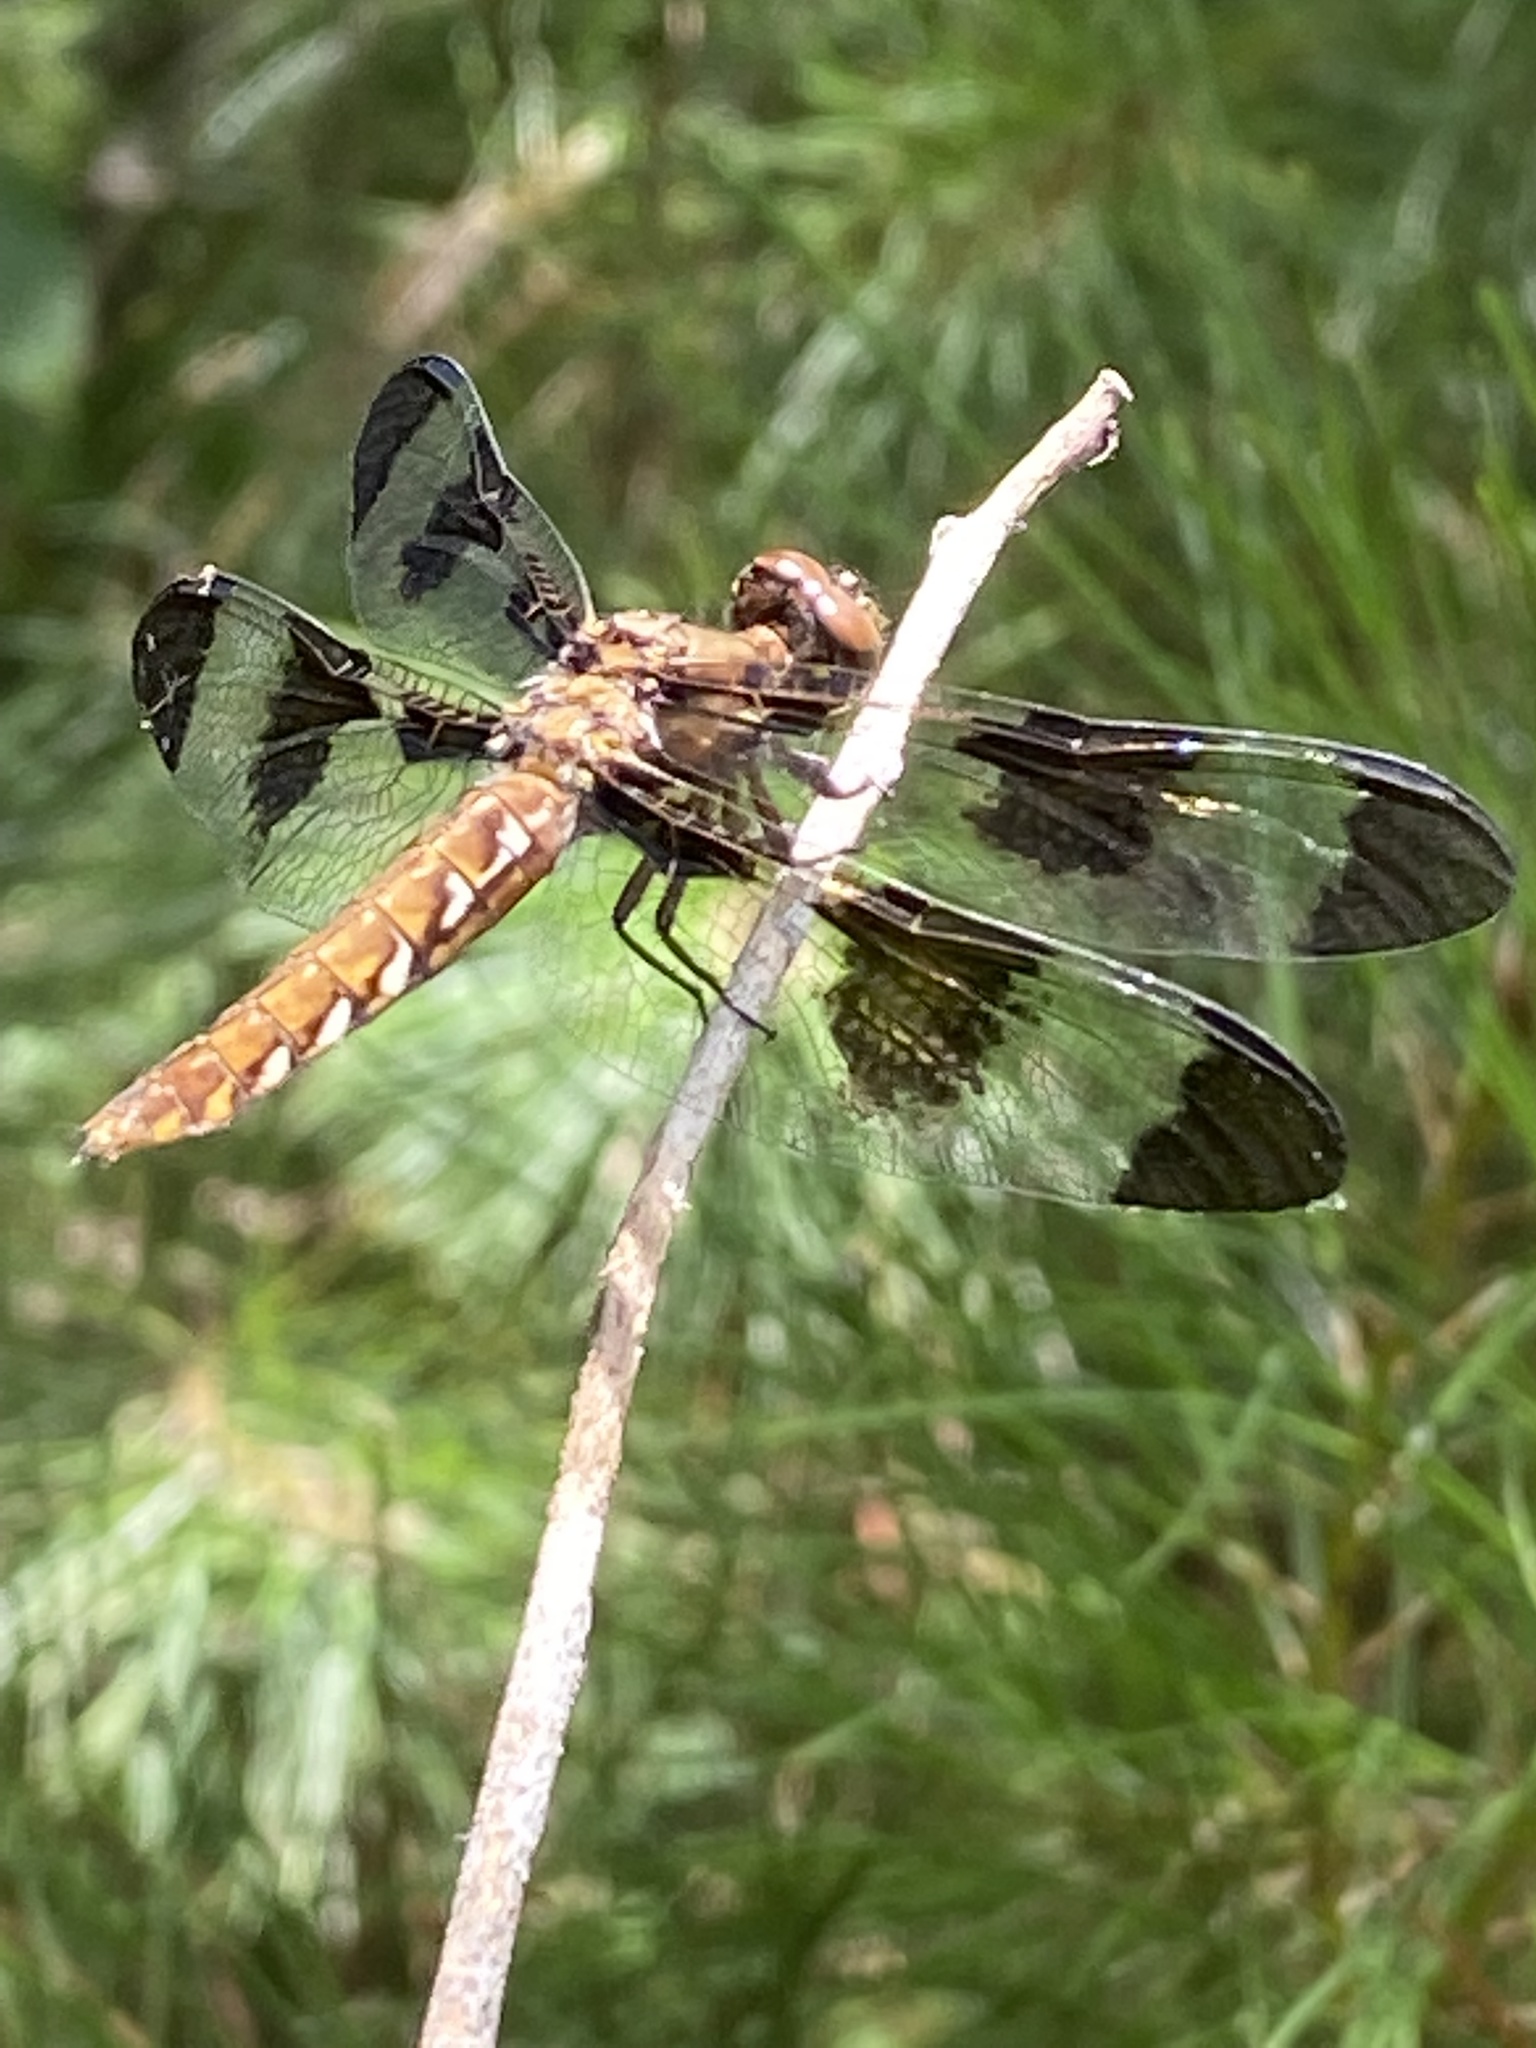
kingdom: Animalia
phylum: Arthropoda
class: Insecta
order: Odonata
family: Libellulidae
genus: Plathemis
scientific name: Plathemis lydia
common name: Common whitetail
